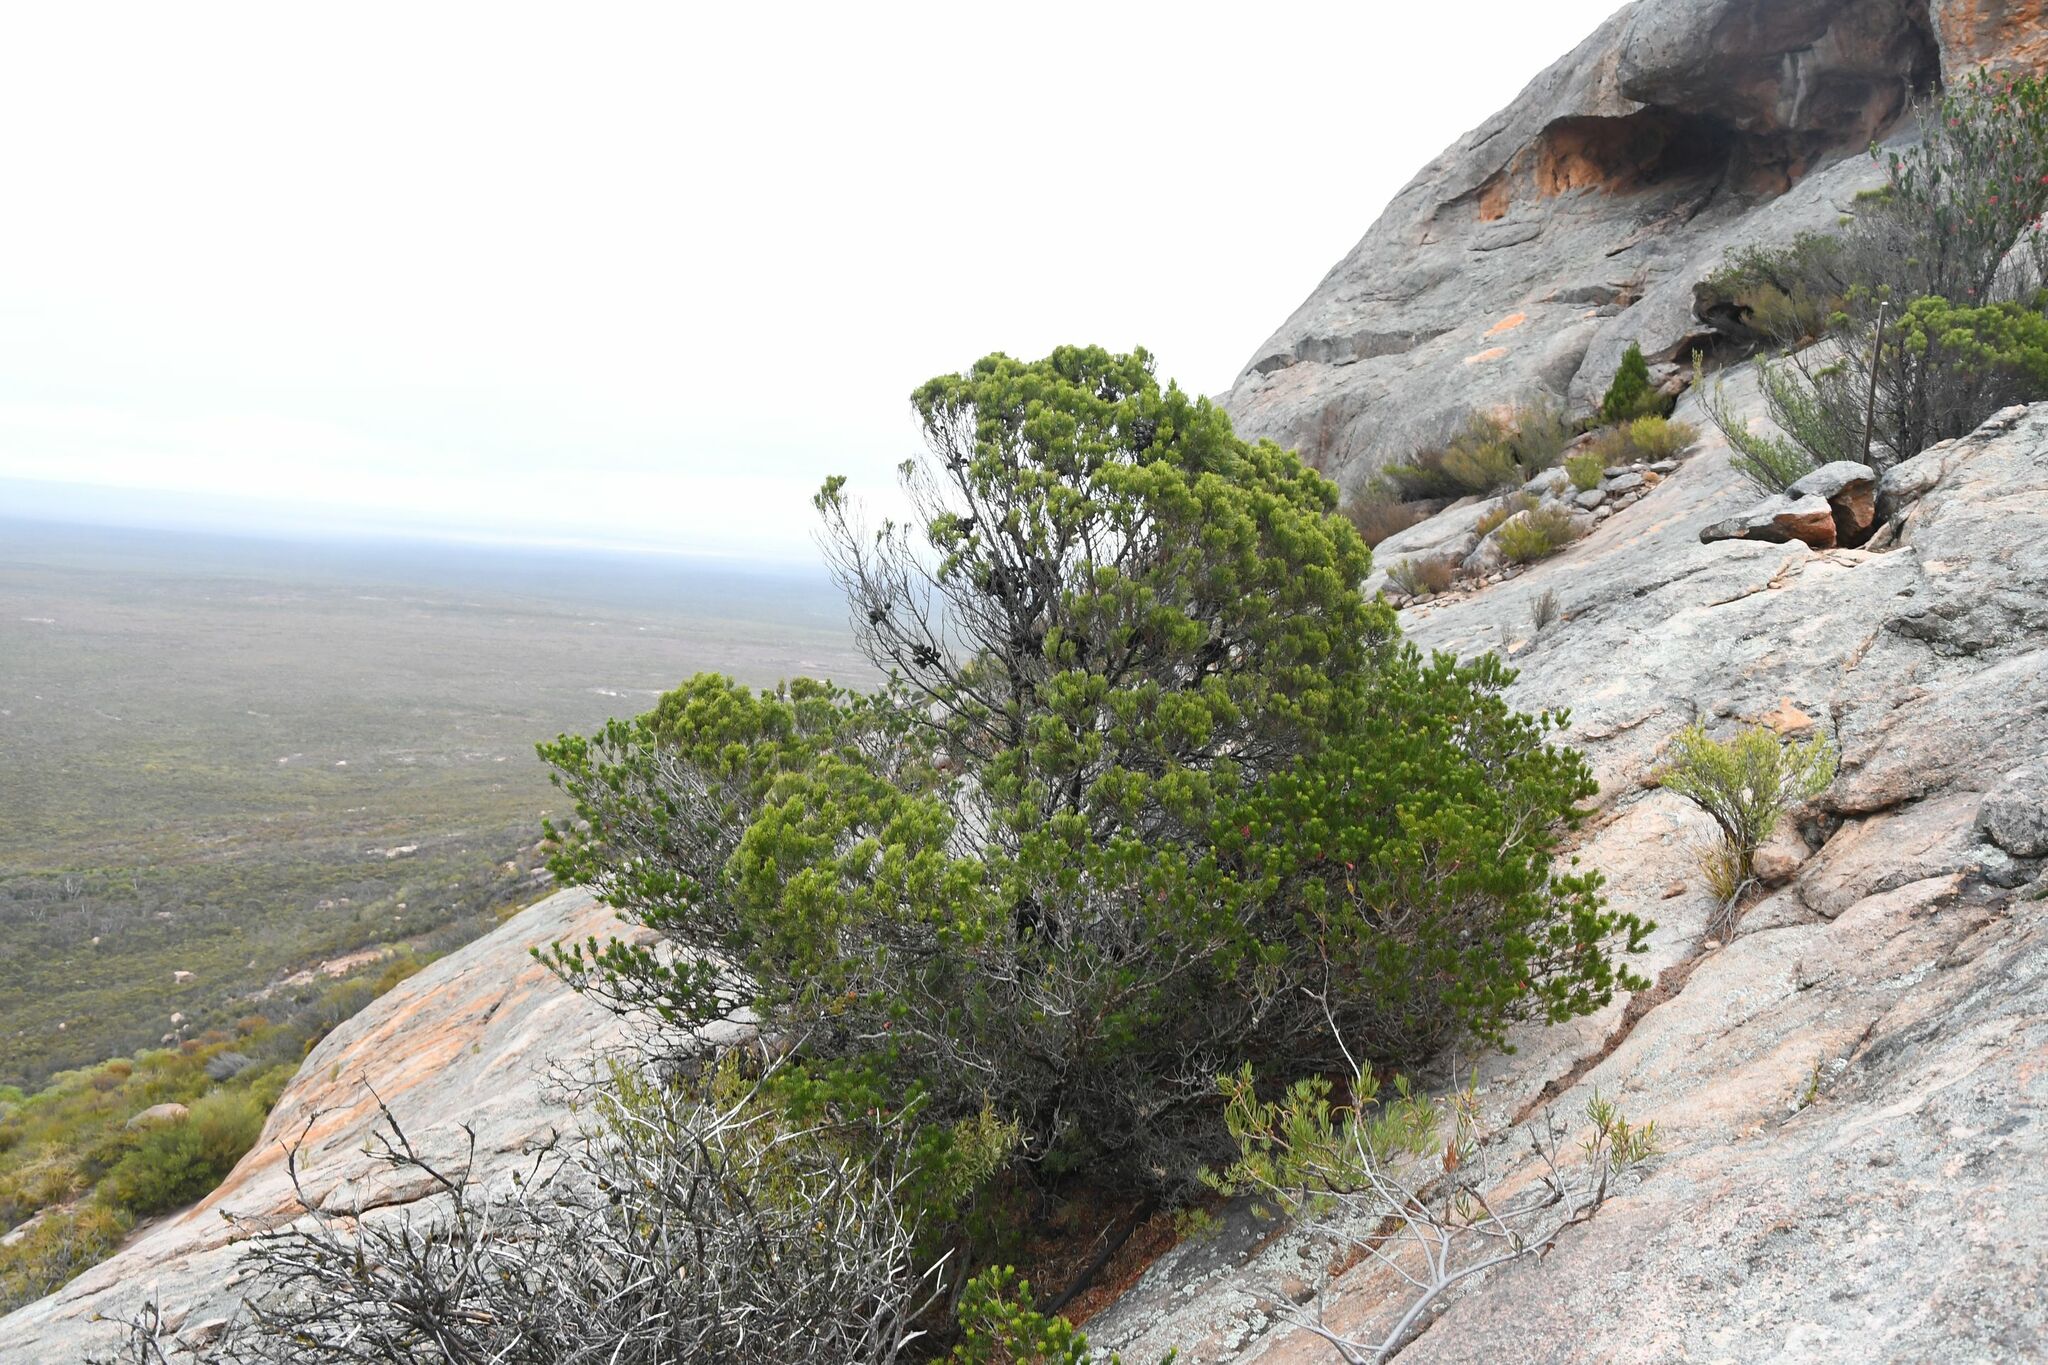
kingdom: Plantae
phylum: Tracheophyta
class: Pinopsida
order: Pinales
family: Cupressaceae
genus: Callitris
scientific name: Callitris preissii
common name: Mallee pine
